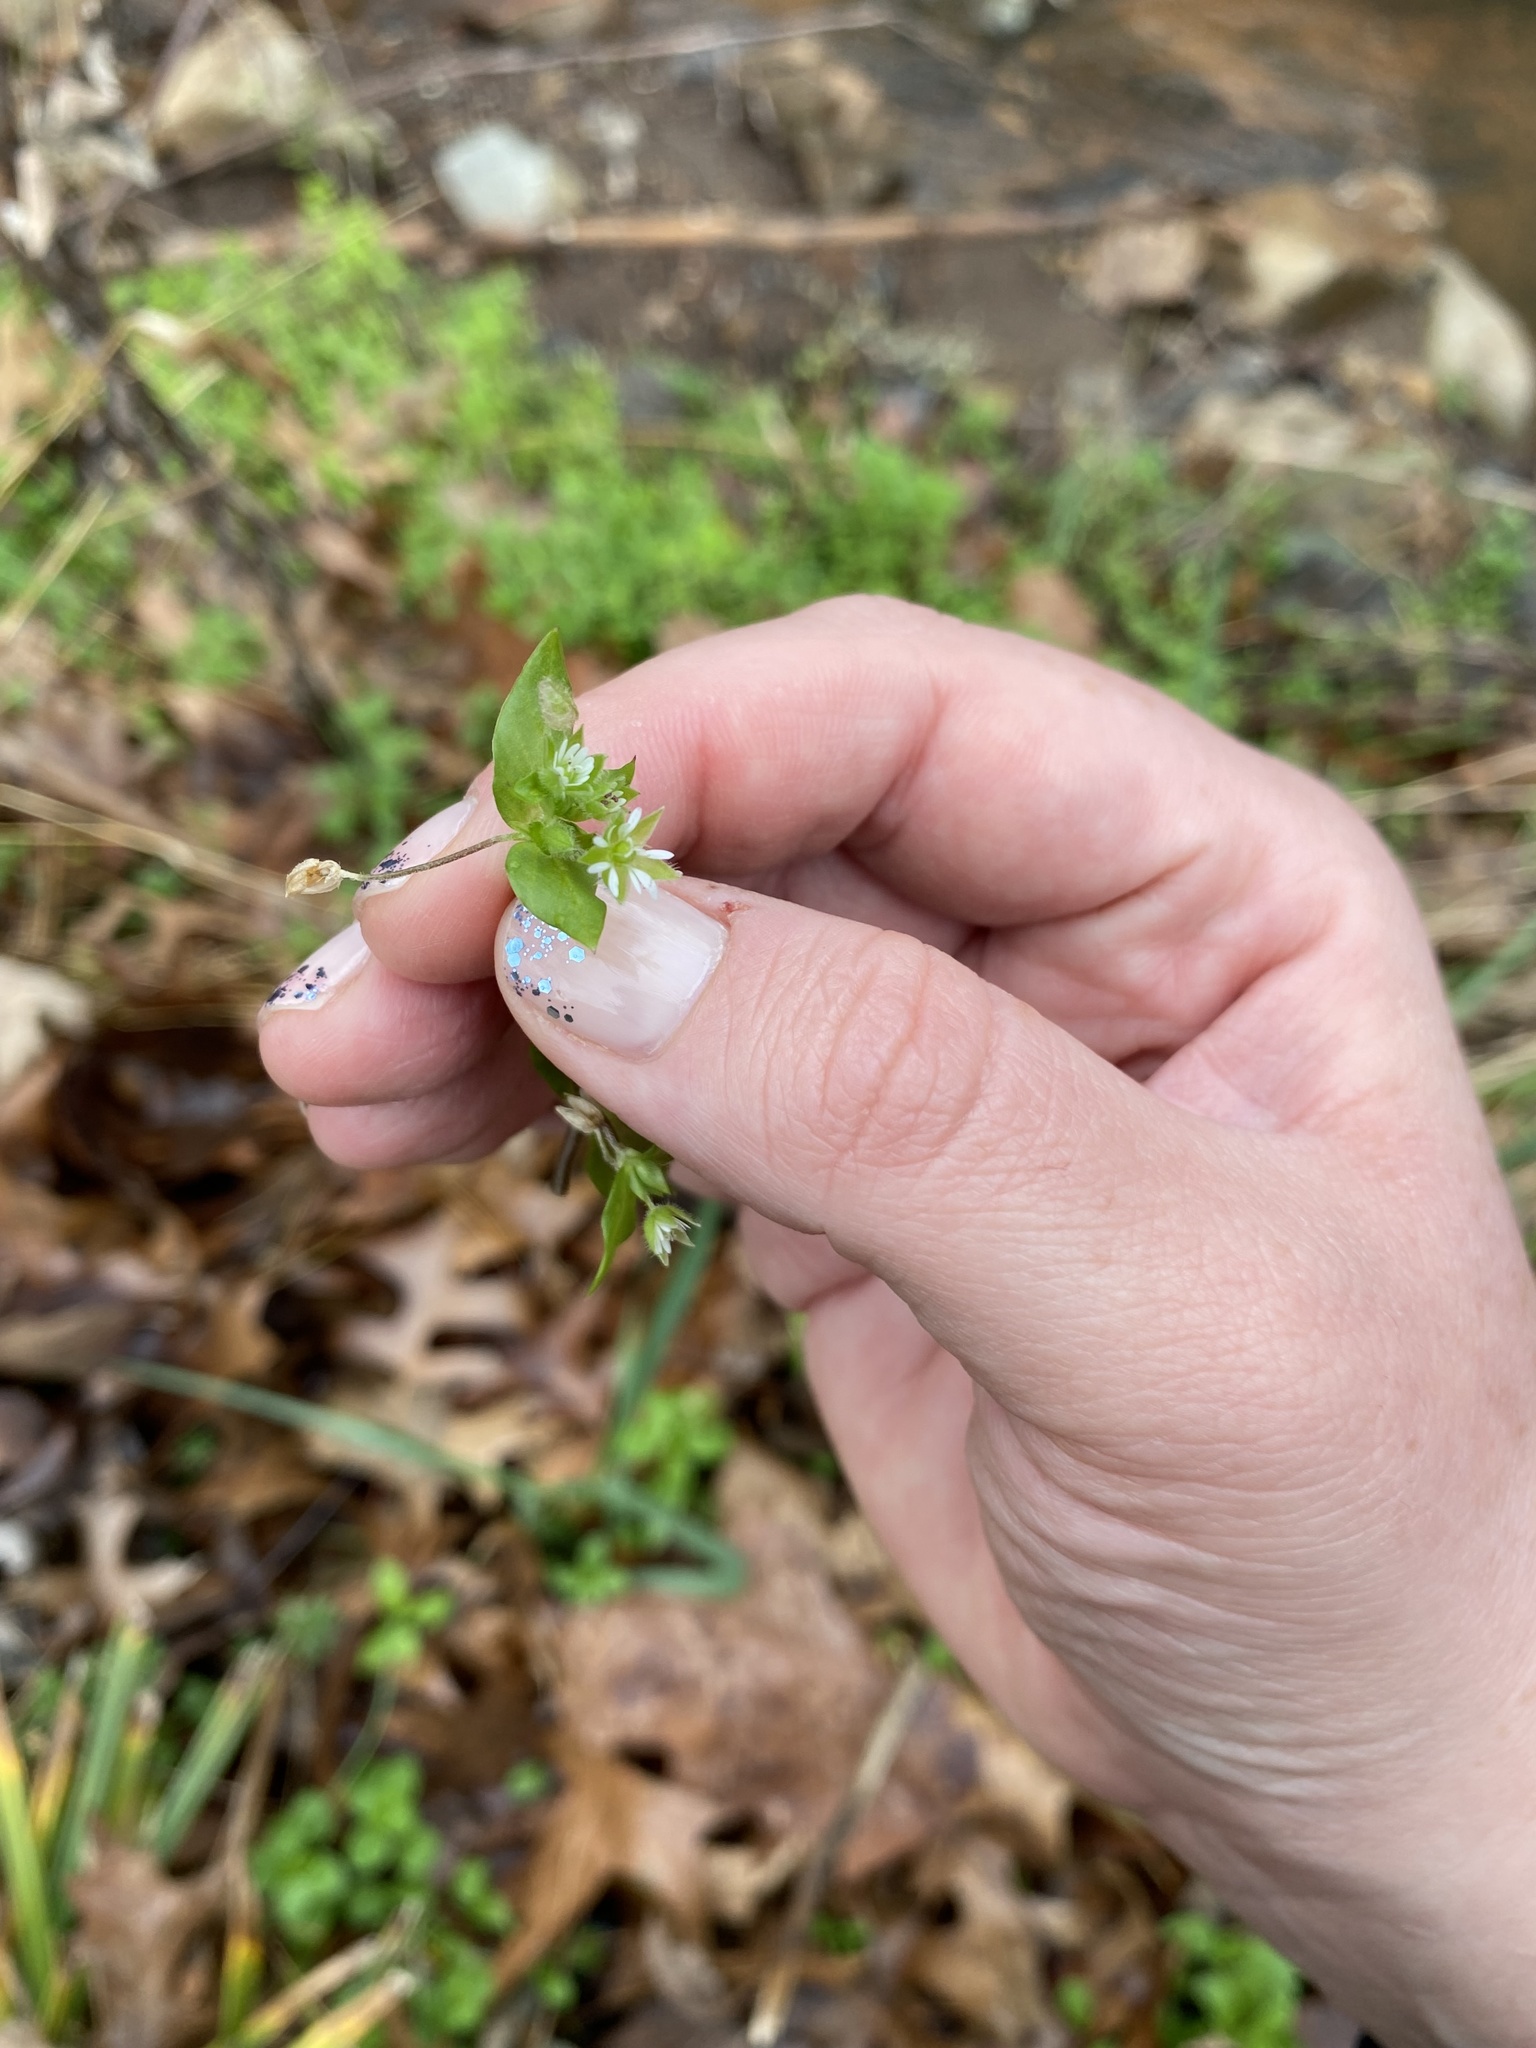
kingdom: Plantae
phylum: Tracheophyta
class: Magnoliopsida
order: Caryophyllales
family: Caryophyllaceae
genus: Stellaria
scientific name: Stellaria media
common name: Common chickweed
